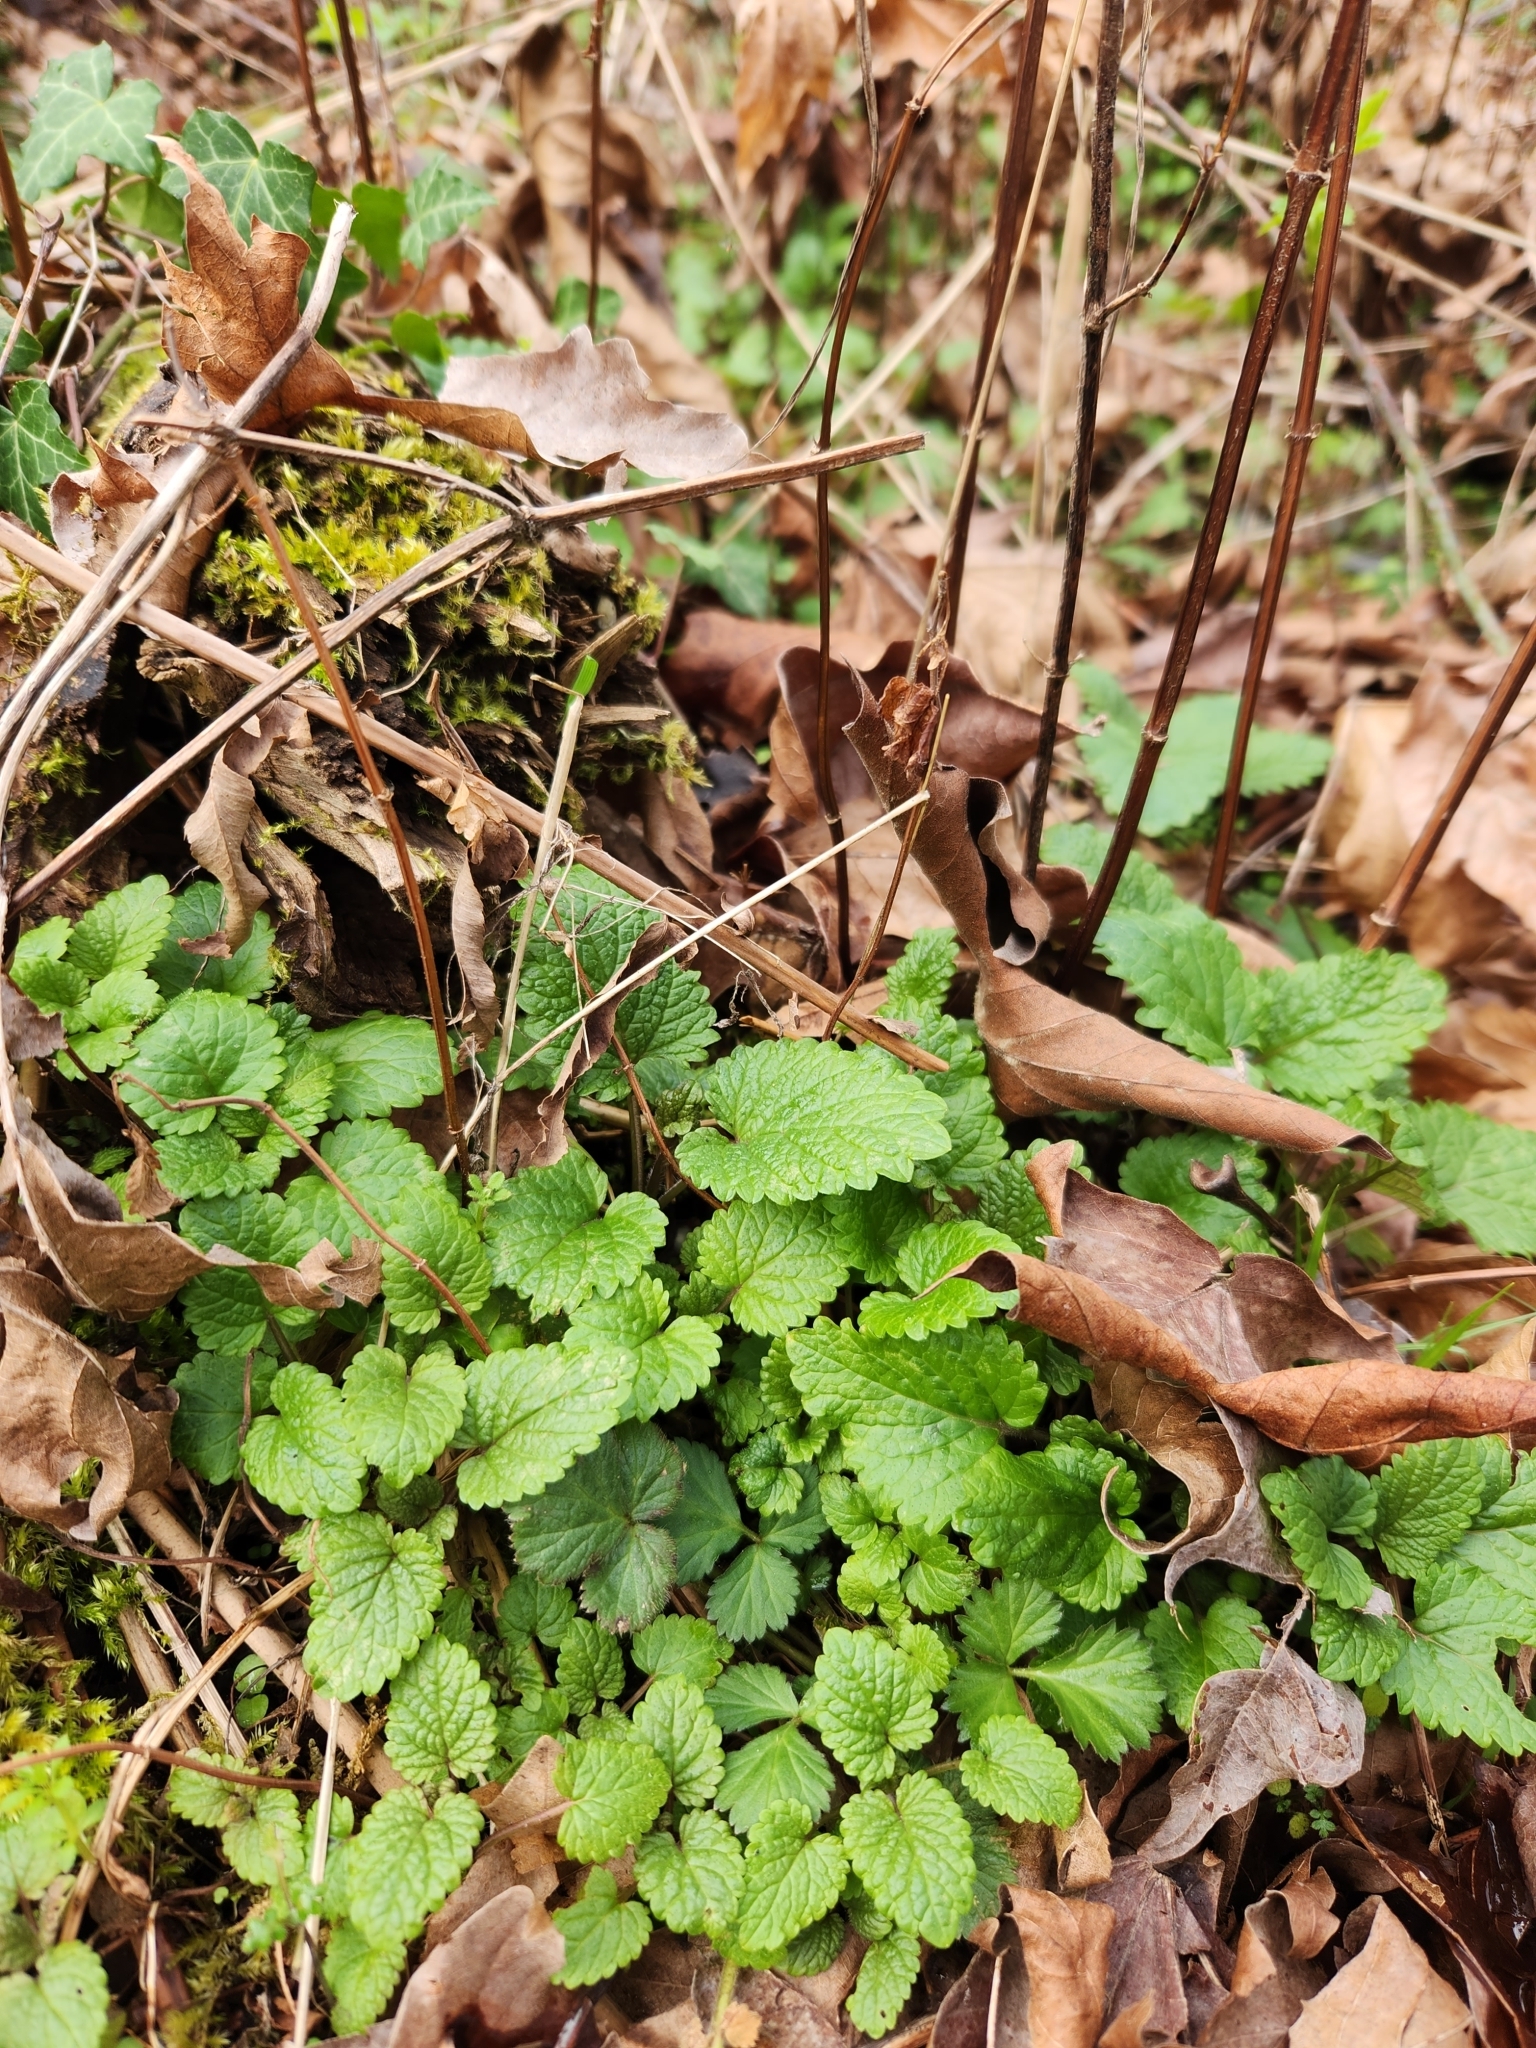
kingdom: Plantae
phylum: Tracheophyta
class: Magnoliopsida
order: Lamiales
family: Lamiaceae
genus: Melissa
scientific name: Melissa officinalis
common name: Balm
